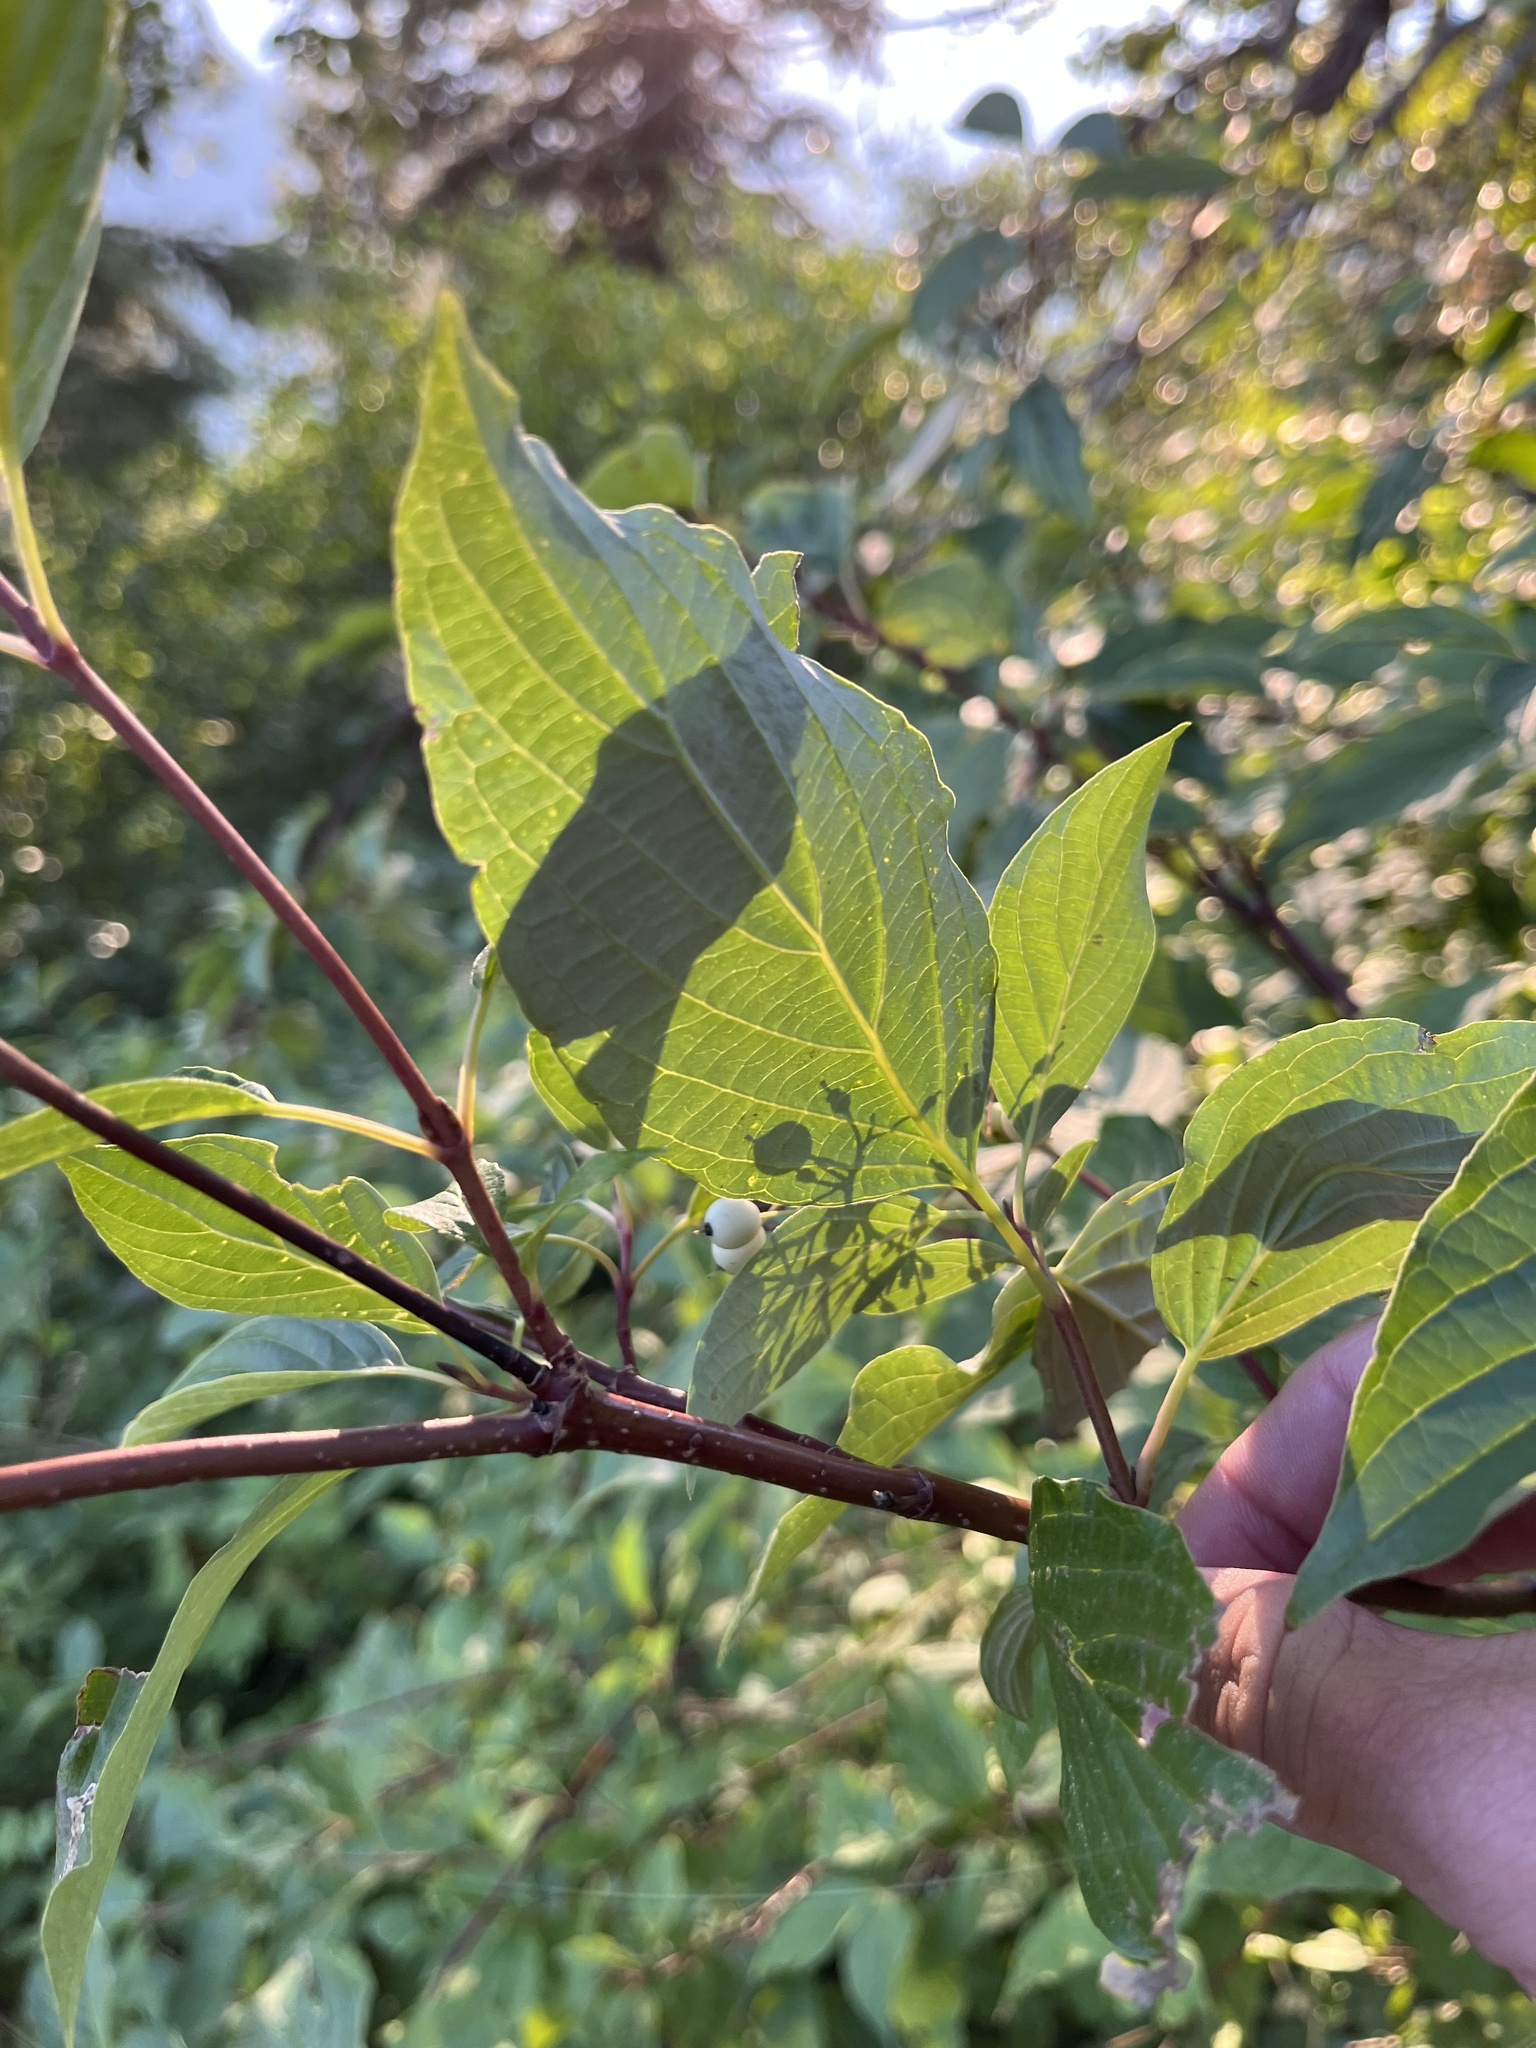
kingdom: Plantae
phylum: Tracheophyta
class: Magnoliopsida
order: Cornales
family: Cornaceae
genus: Cornus
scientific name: Cornus sericea
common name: Red-osier dogwood
